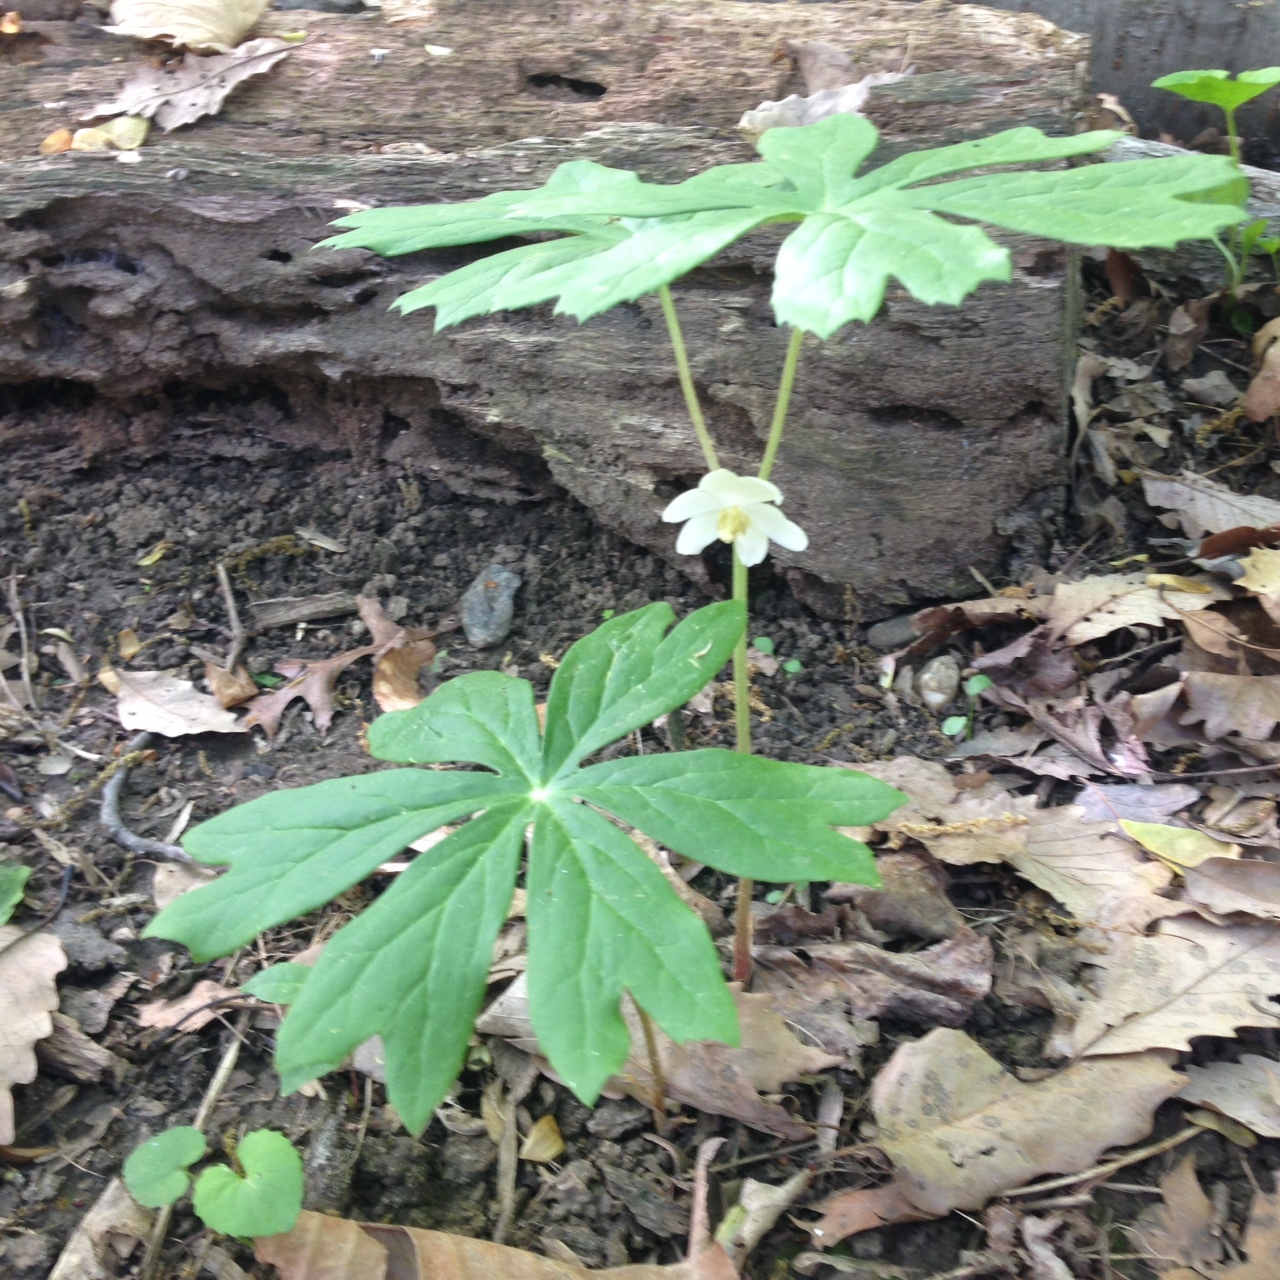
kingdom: Plantae
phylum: Tracheophyta
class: Magnoliopsida
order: Ranunculales
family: Berberidaceae
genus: Podophyllum
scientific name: Podophyllum peltatum
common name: Wild mandrake
